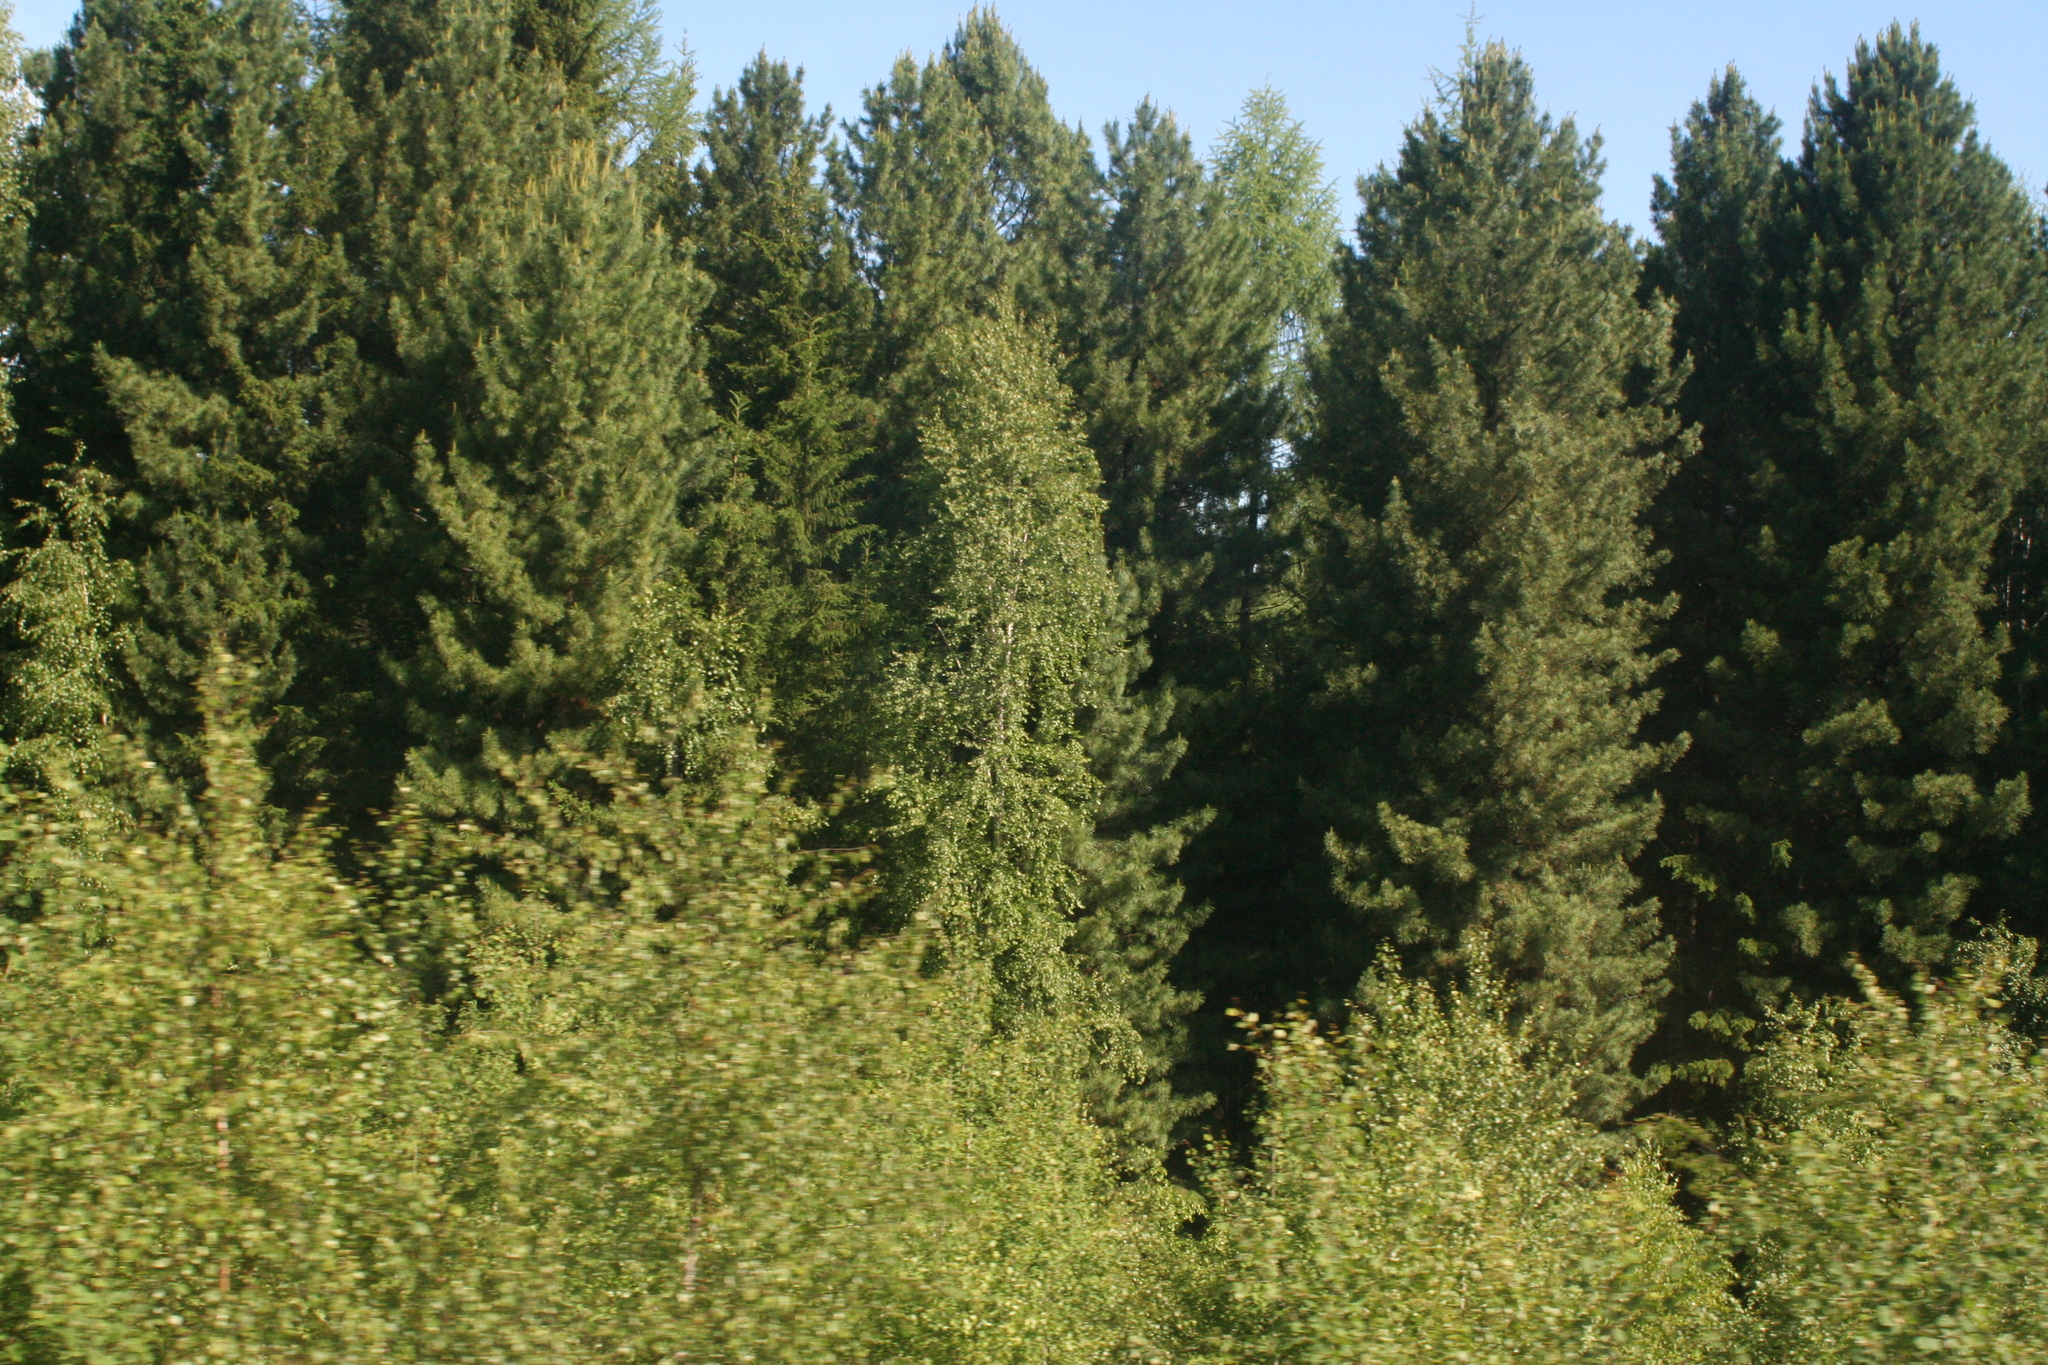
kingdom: Plantae
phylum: Tracheophyta
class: Pinopsida
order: Pinales
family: Pinaceae
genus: Pinus
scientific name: Pinus sibirica
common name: Siberian pine
